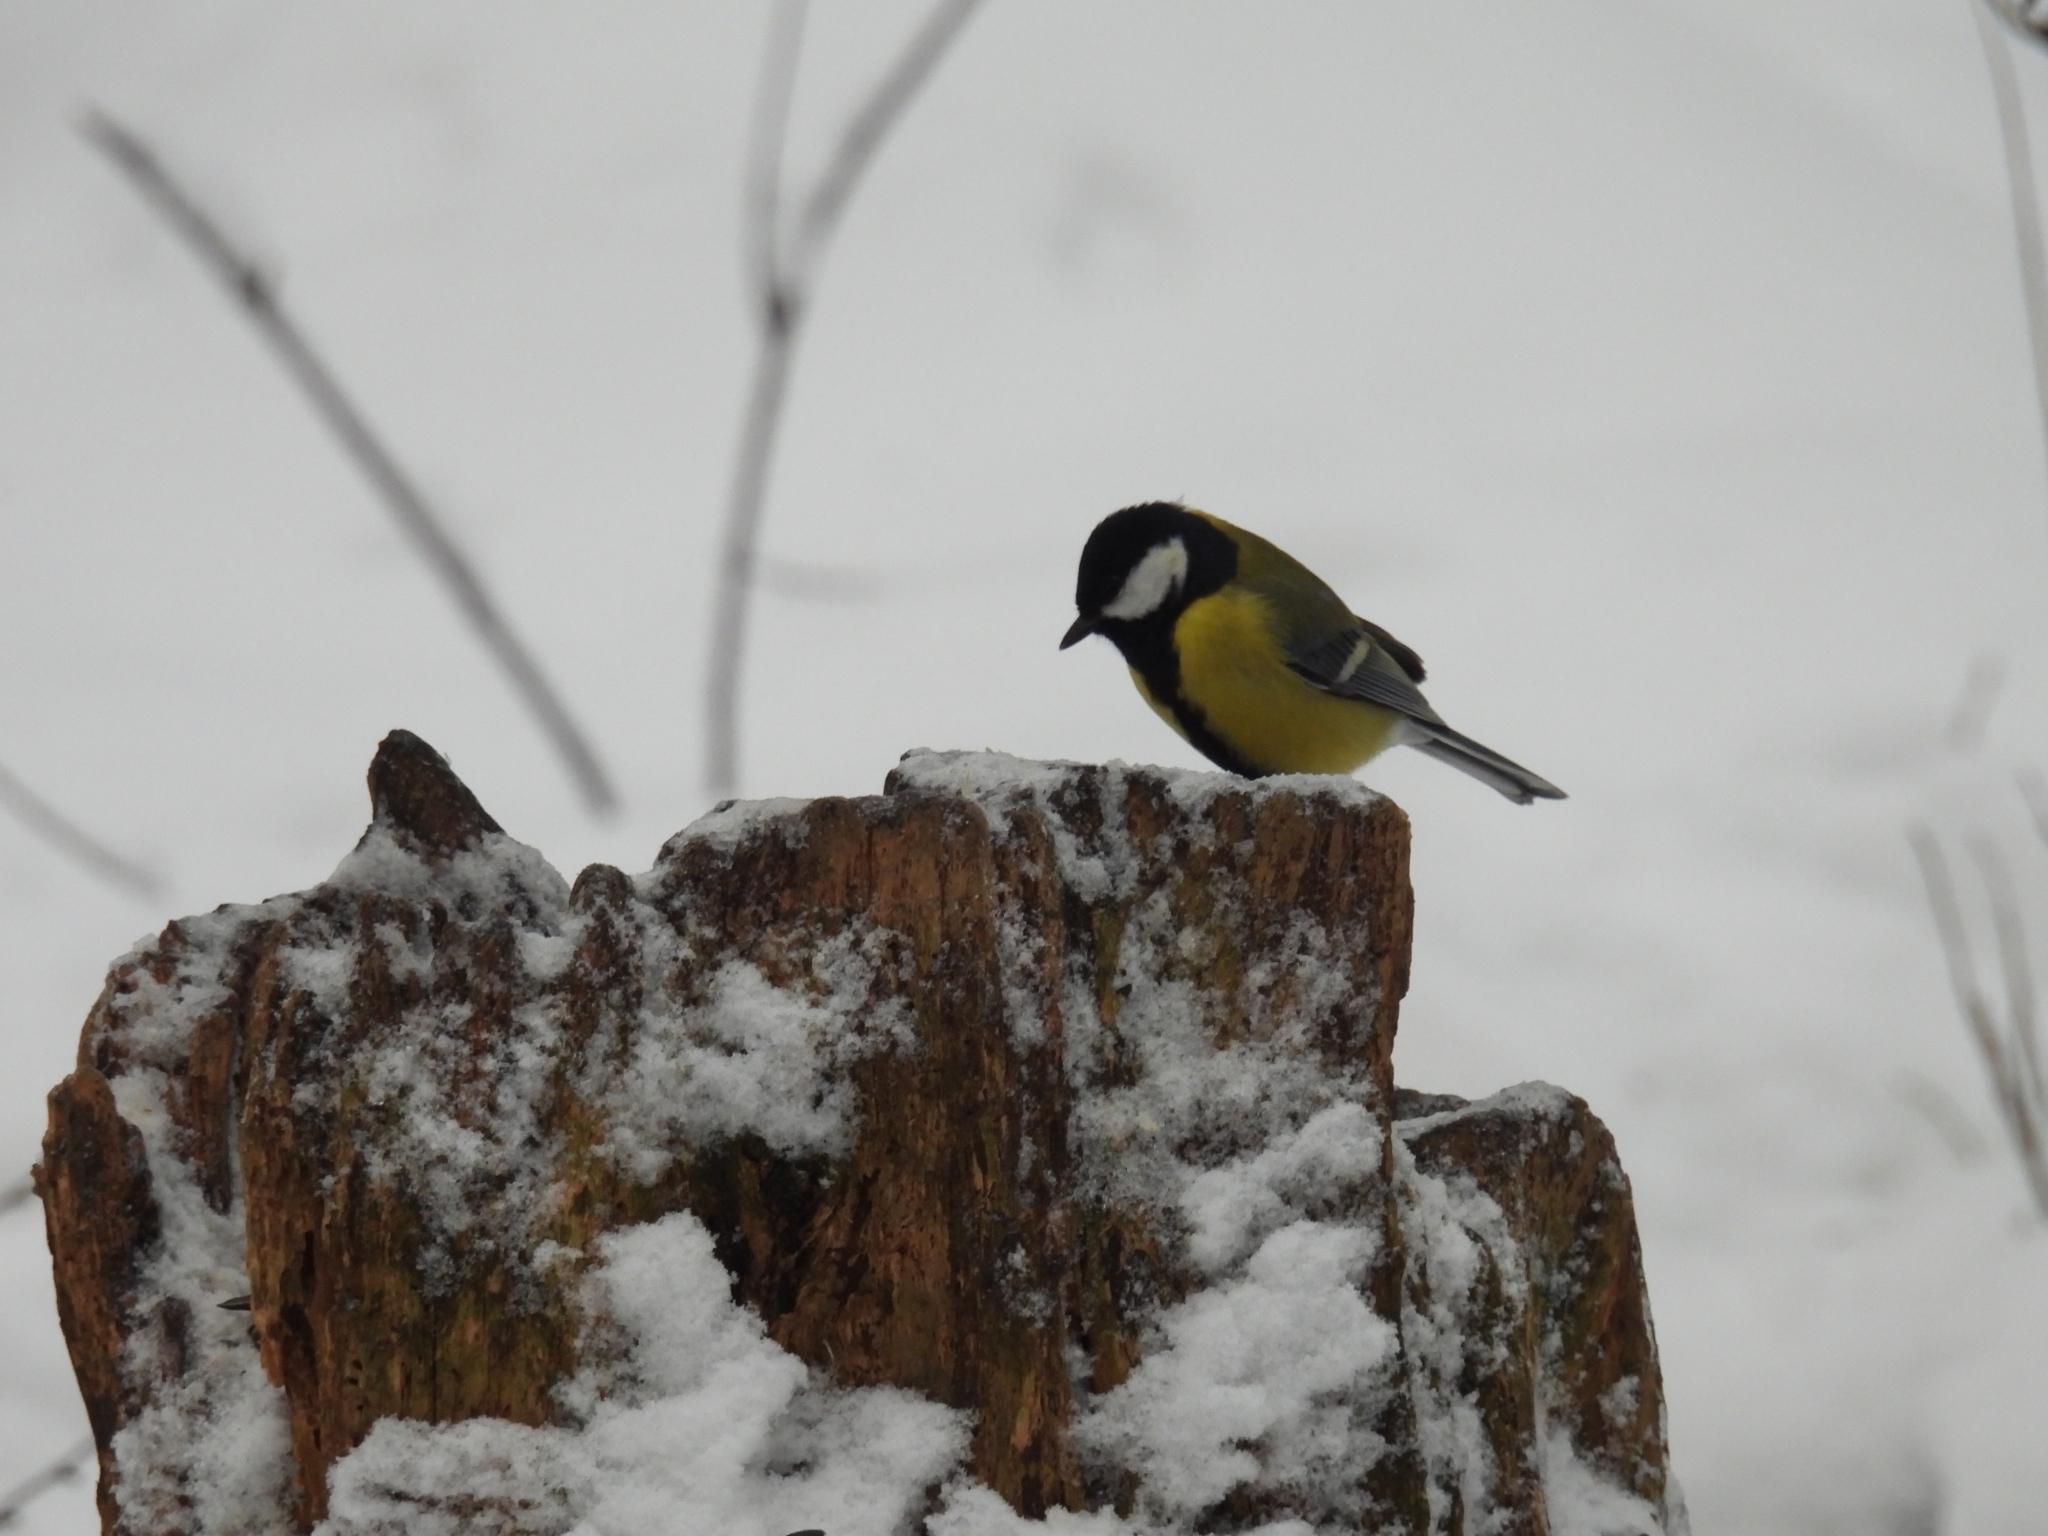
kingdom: Animalia
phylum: Chordata
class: Aves
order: Passeriformes
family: Paridae
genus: Parus
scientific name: Parus major
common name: Great tit
